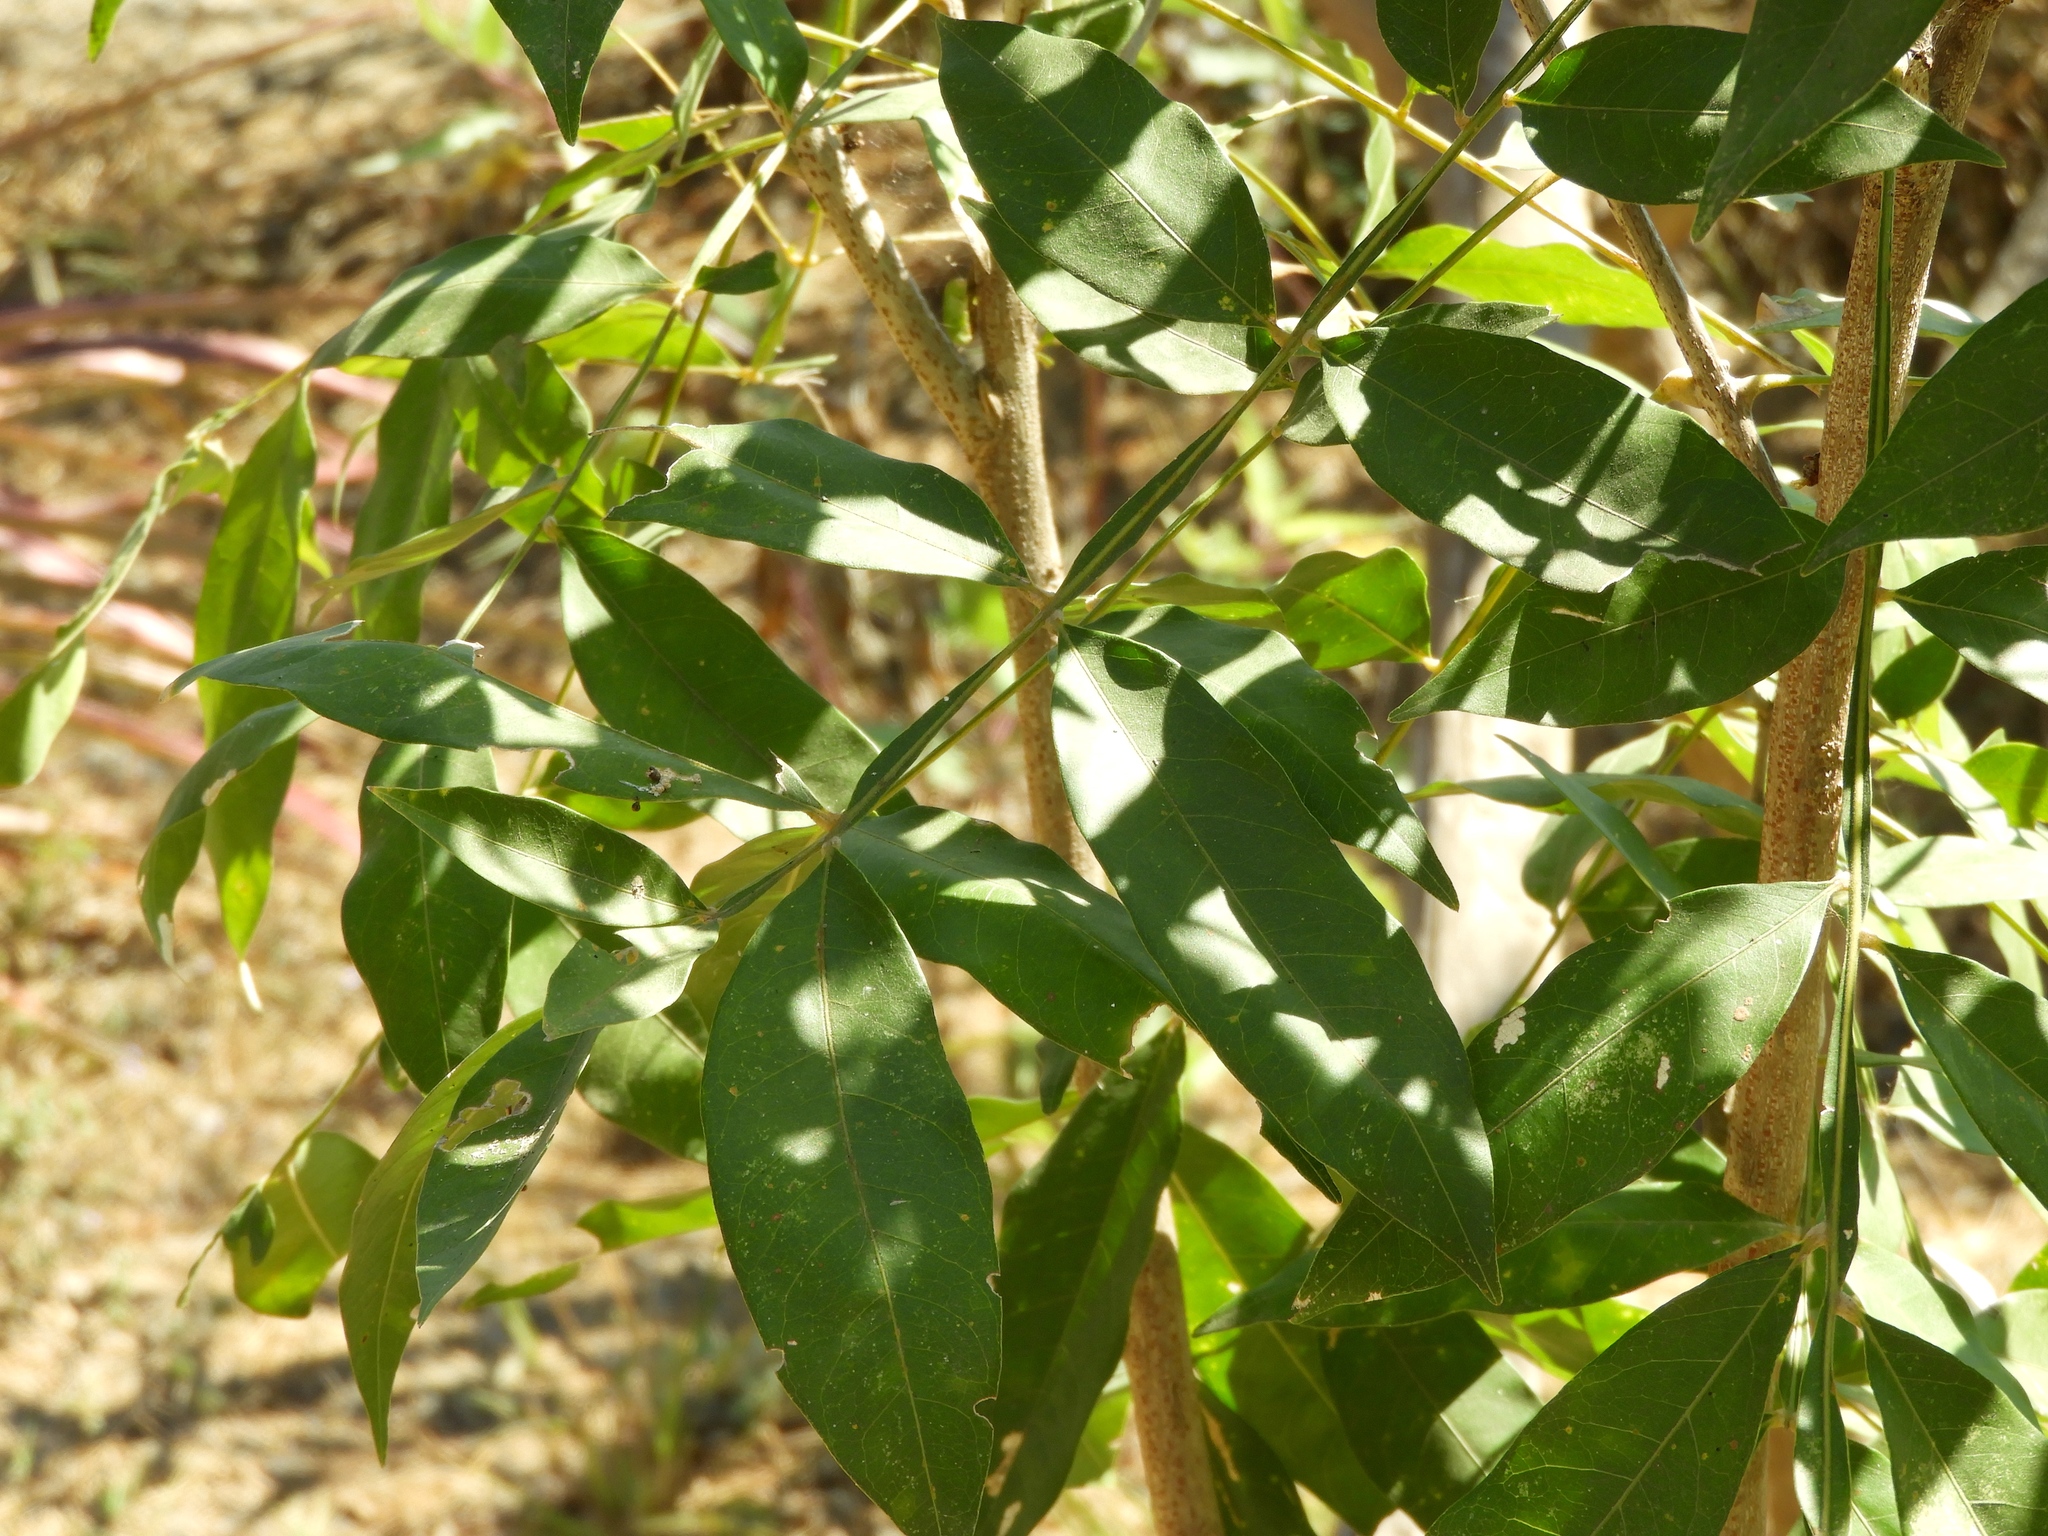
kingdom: Plantae
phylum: Tracheophyta
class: Magnoliopsida
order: Sapindales
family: Sapindaceae
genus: Sapindus
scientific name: Sapindus drummondii
